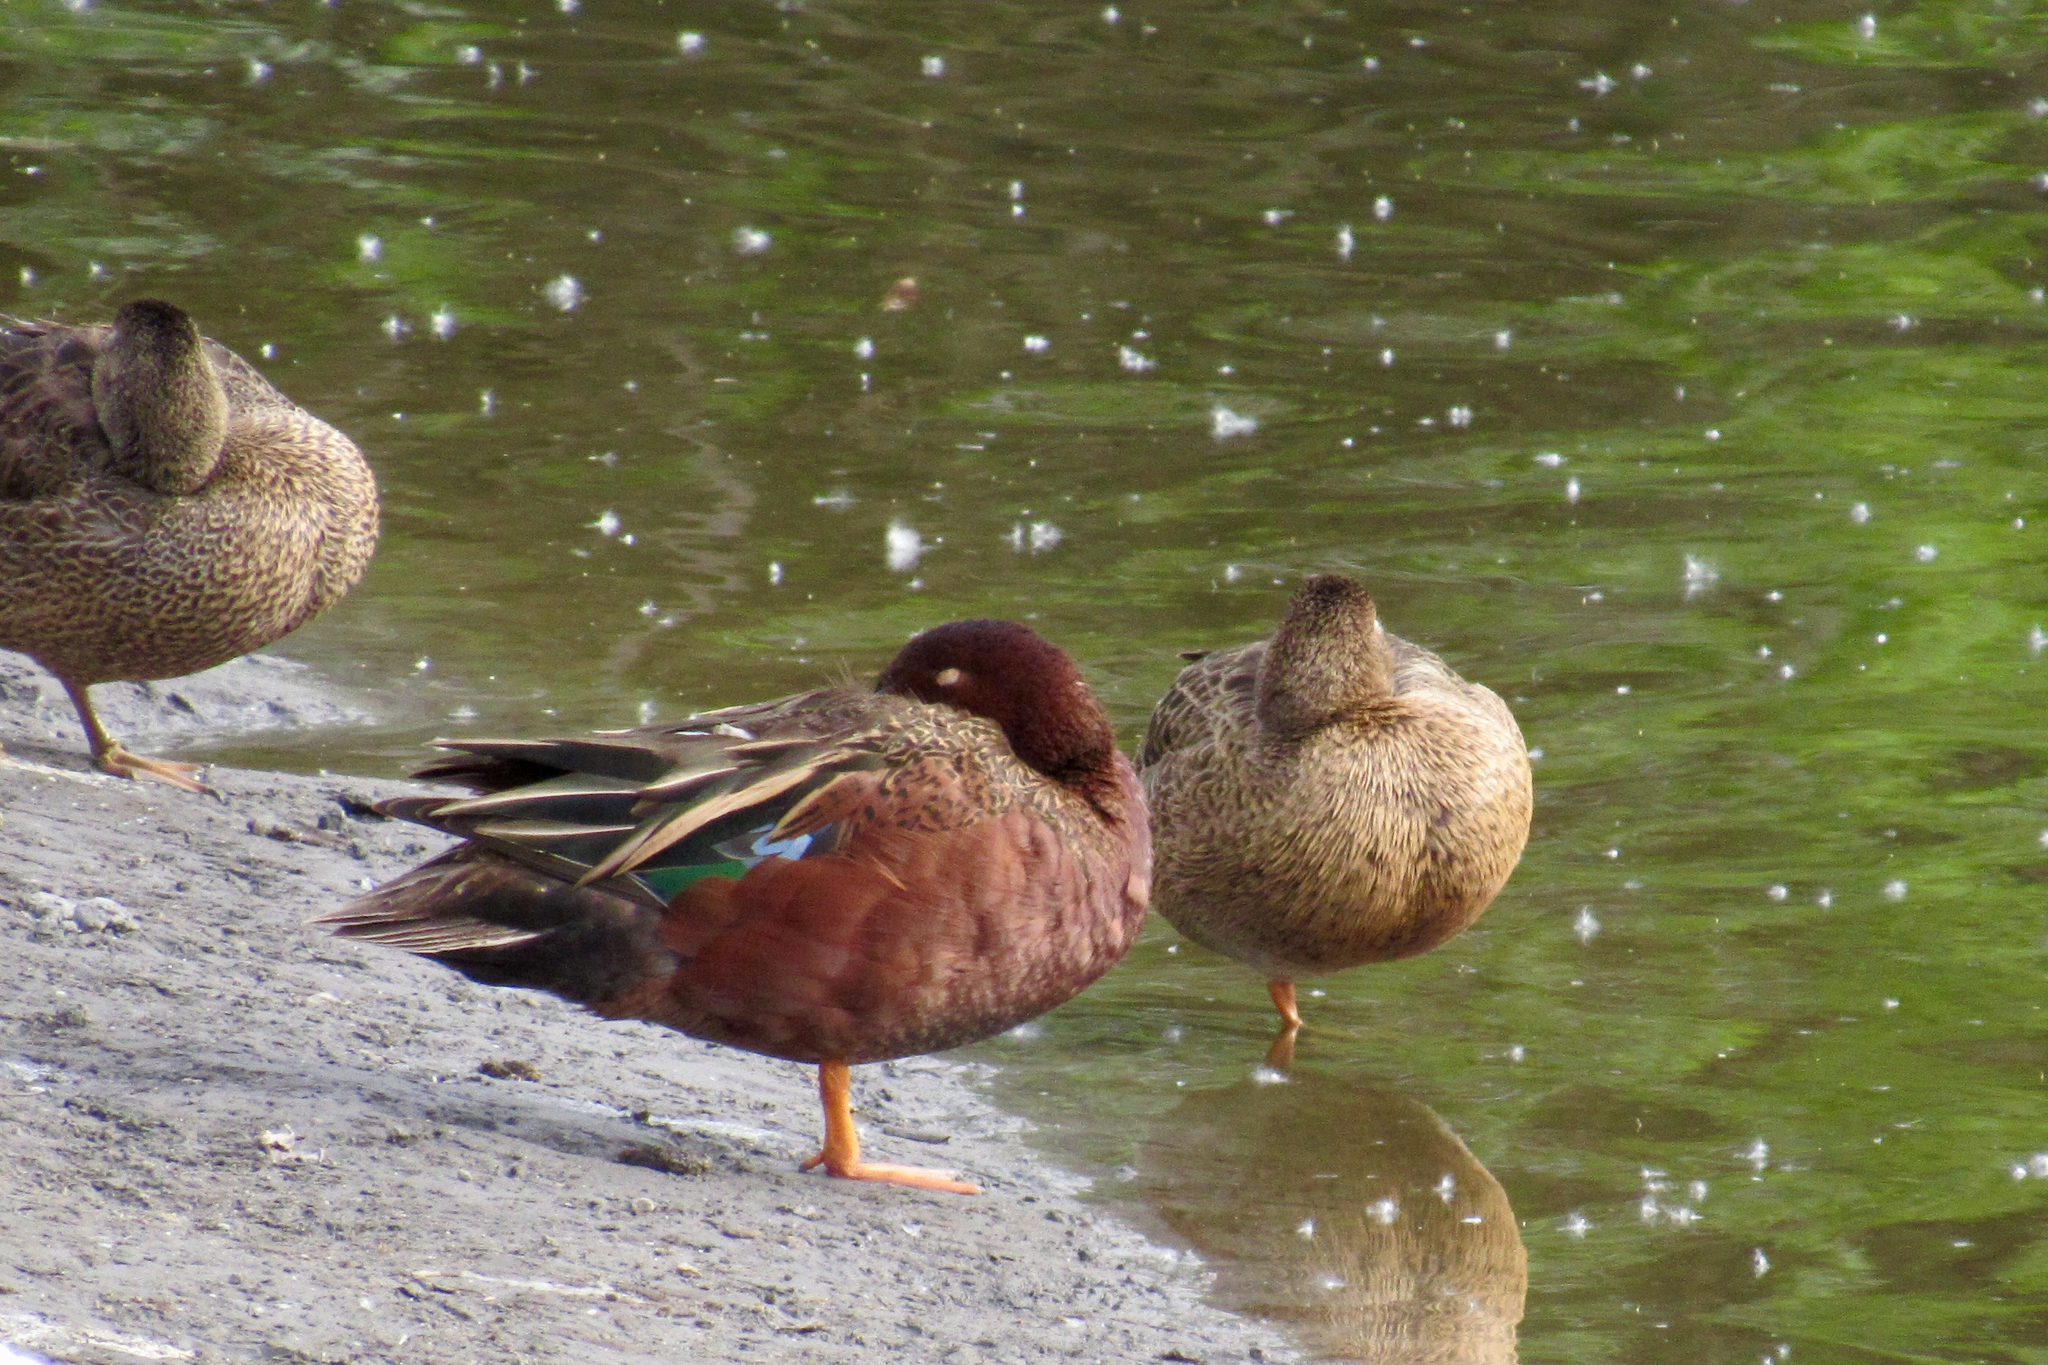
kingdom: Animalia
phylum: Chordata
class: Aves
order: Anseriformes
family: Anatidae
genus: Spatula
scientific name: Spatula cyanoptera
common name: Cinnamon teal
